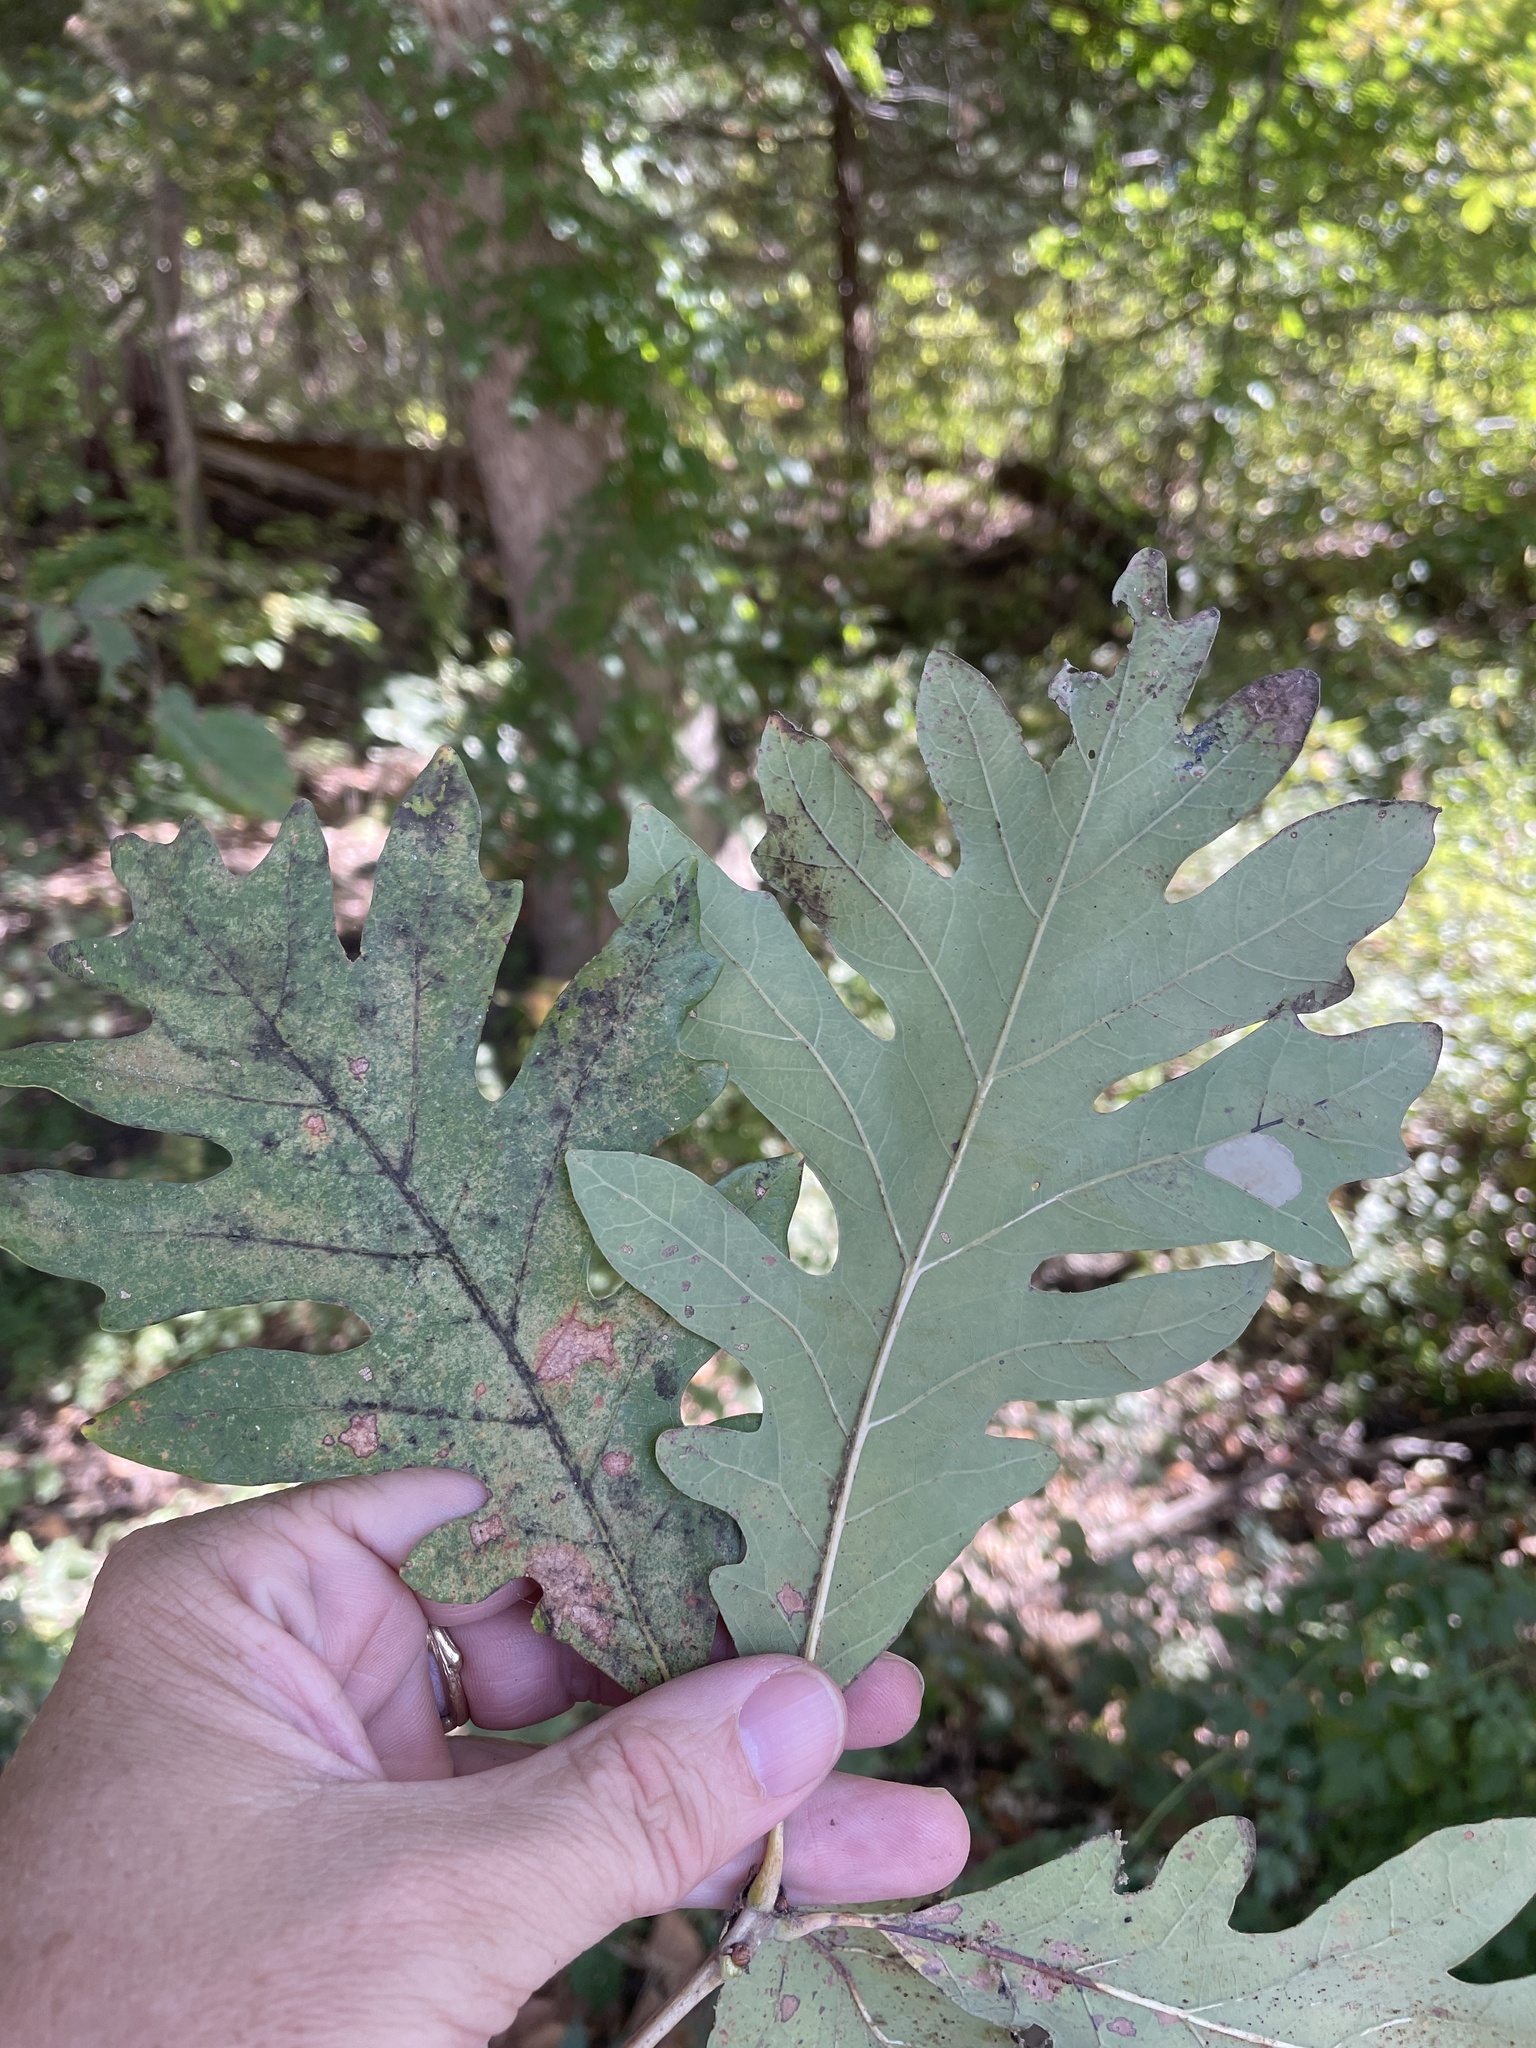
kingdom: Plantae
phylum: Tracheophyta
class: Magnoliopsida
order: Fagales
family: Fagaceae
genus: Quercus
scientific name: Quercus alba
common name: White oak
